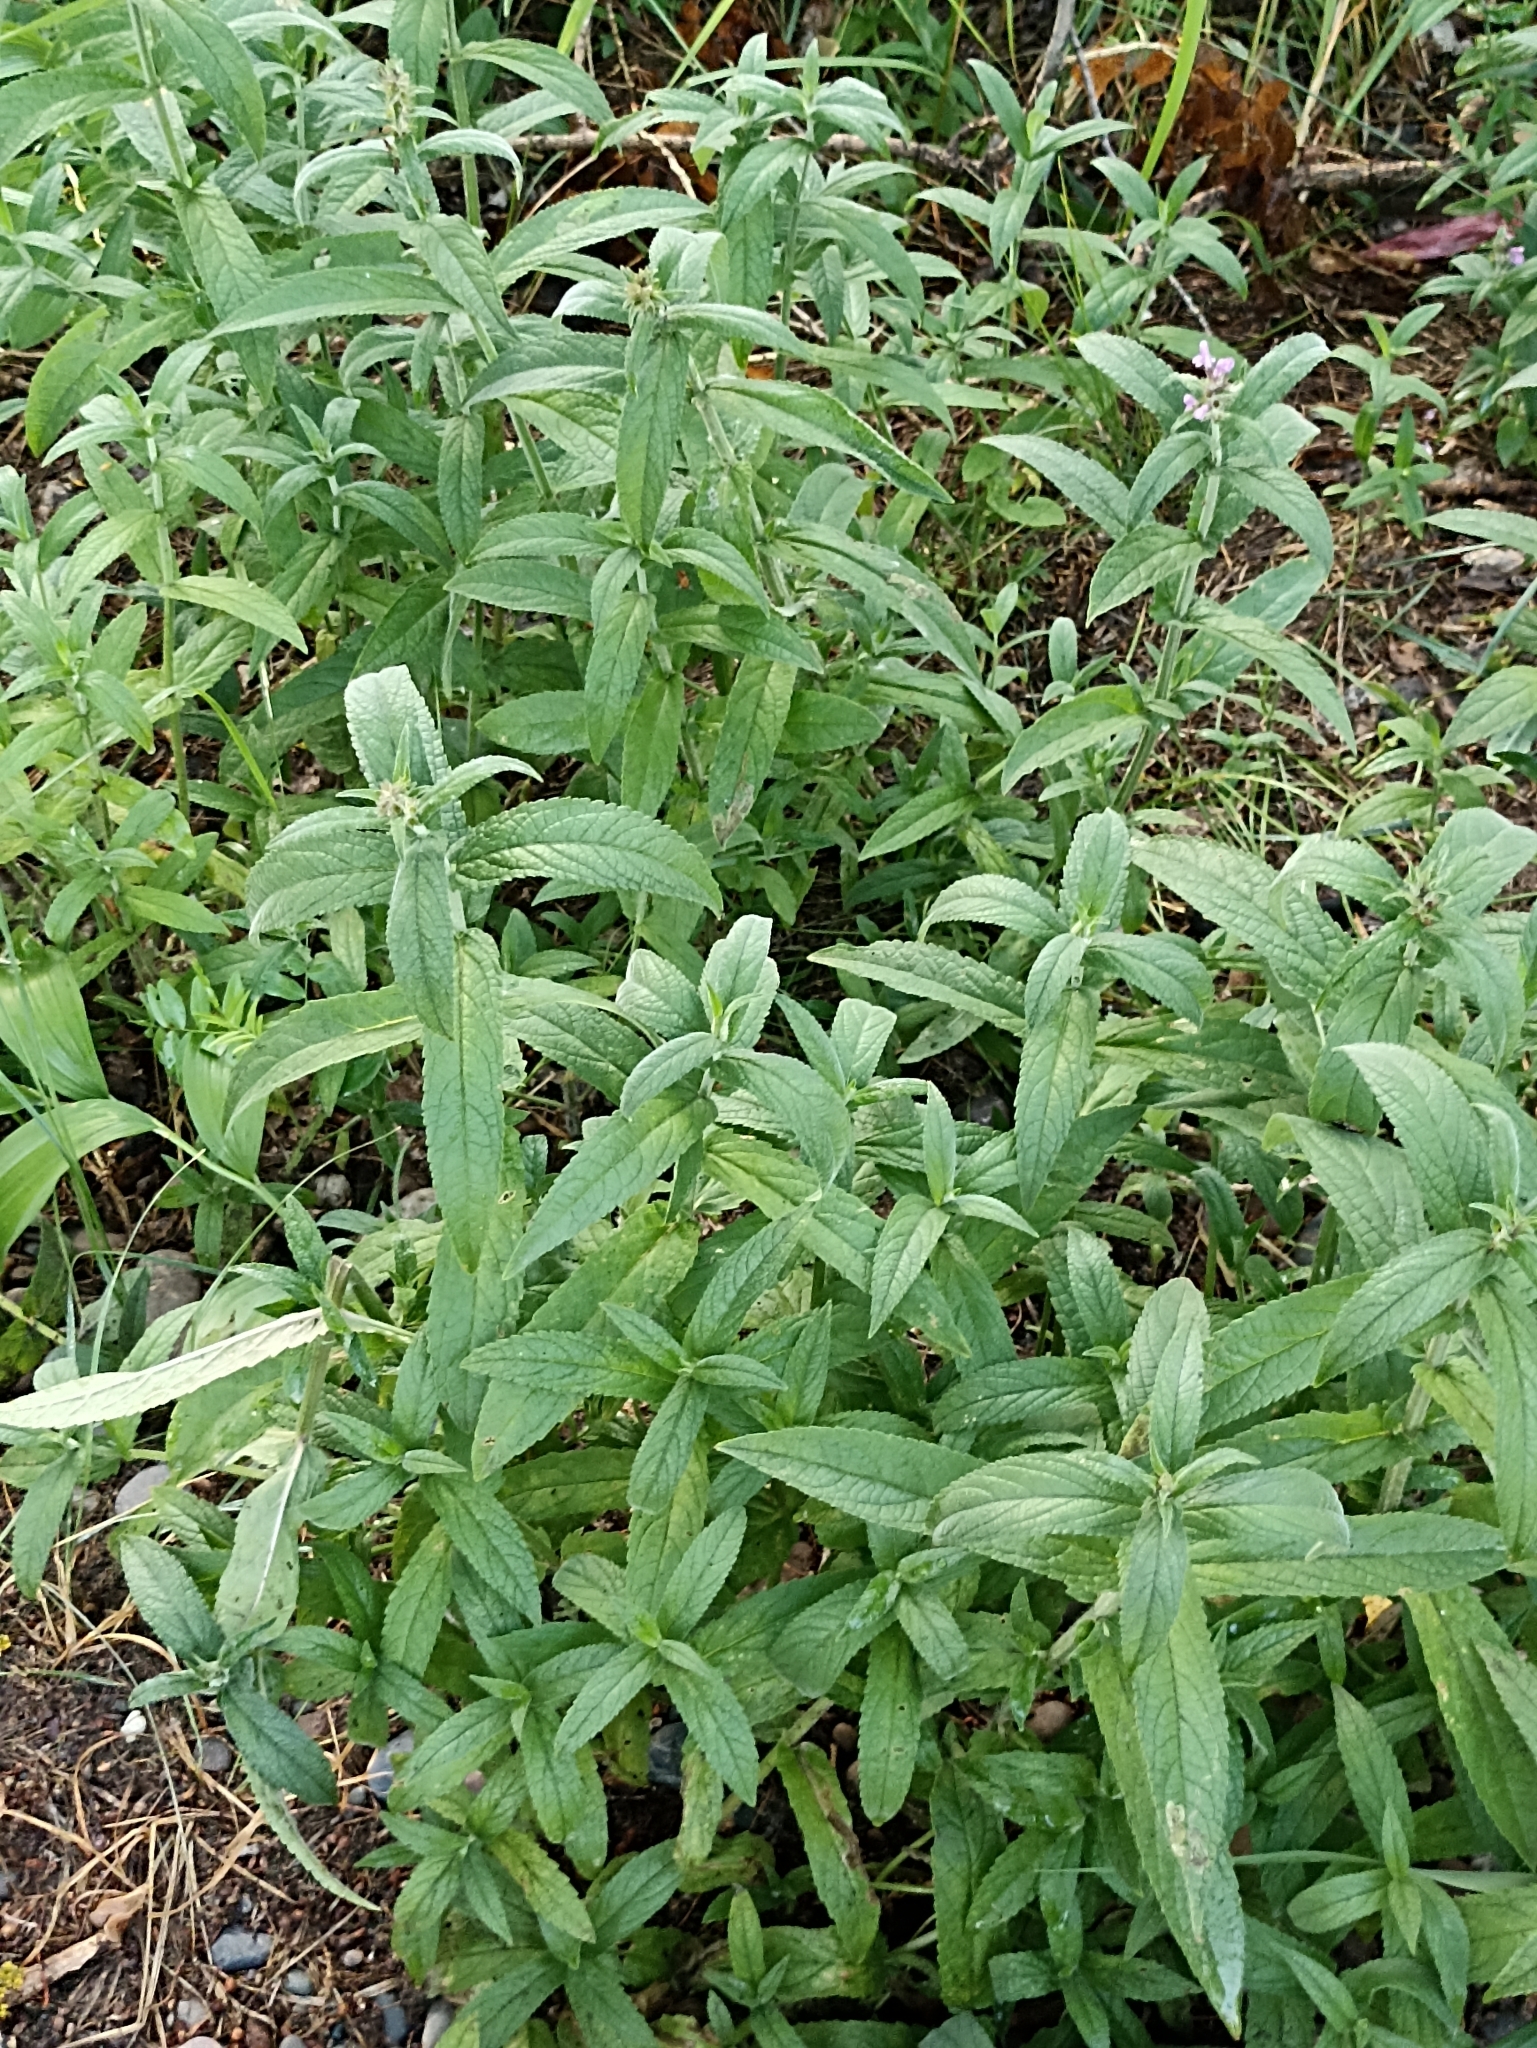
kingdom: Plantae
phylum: Tracheophyta
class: Magnoliopsida
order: Lamiales
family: Lamiaceae
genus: Stachys
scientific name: Stachys palustris
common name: Marsh woundwort
